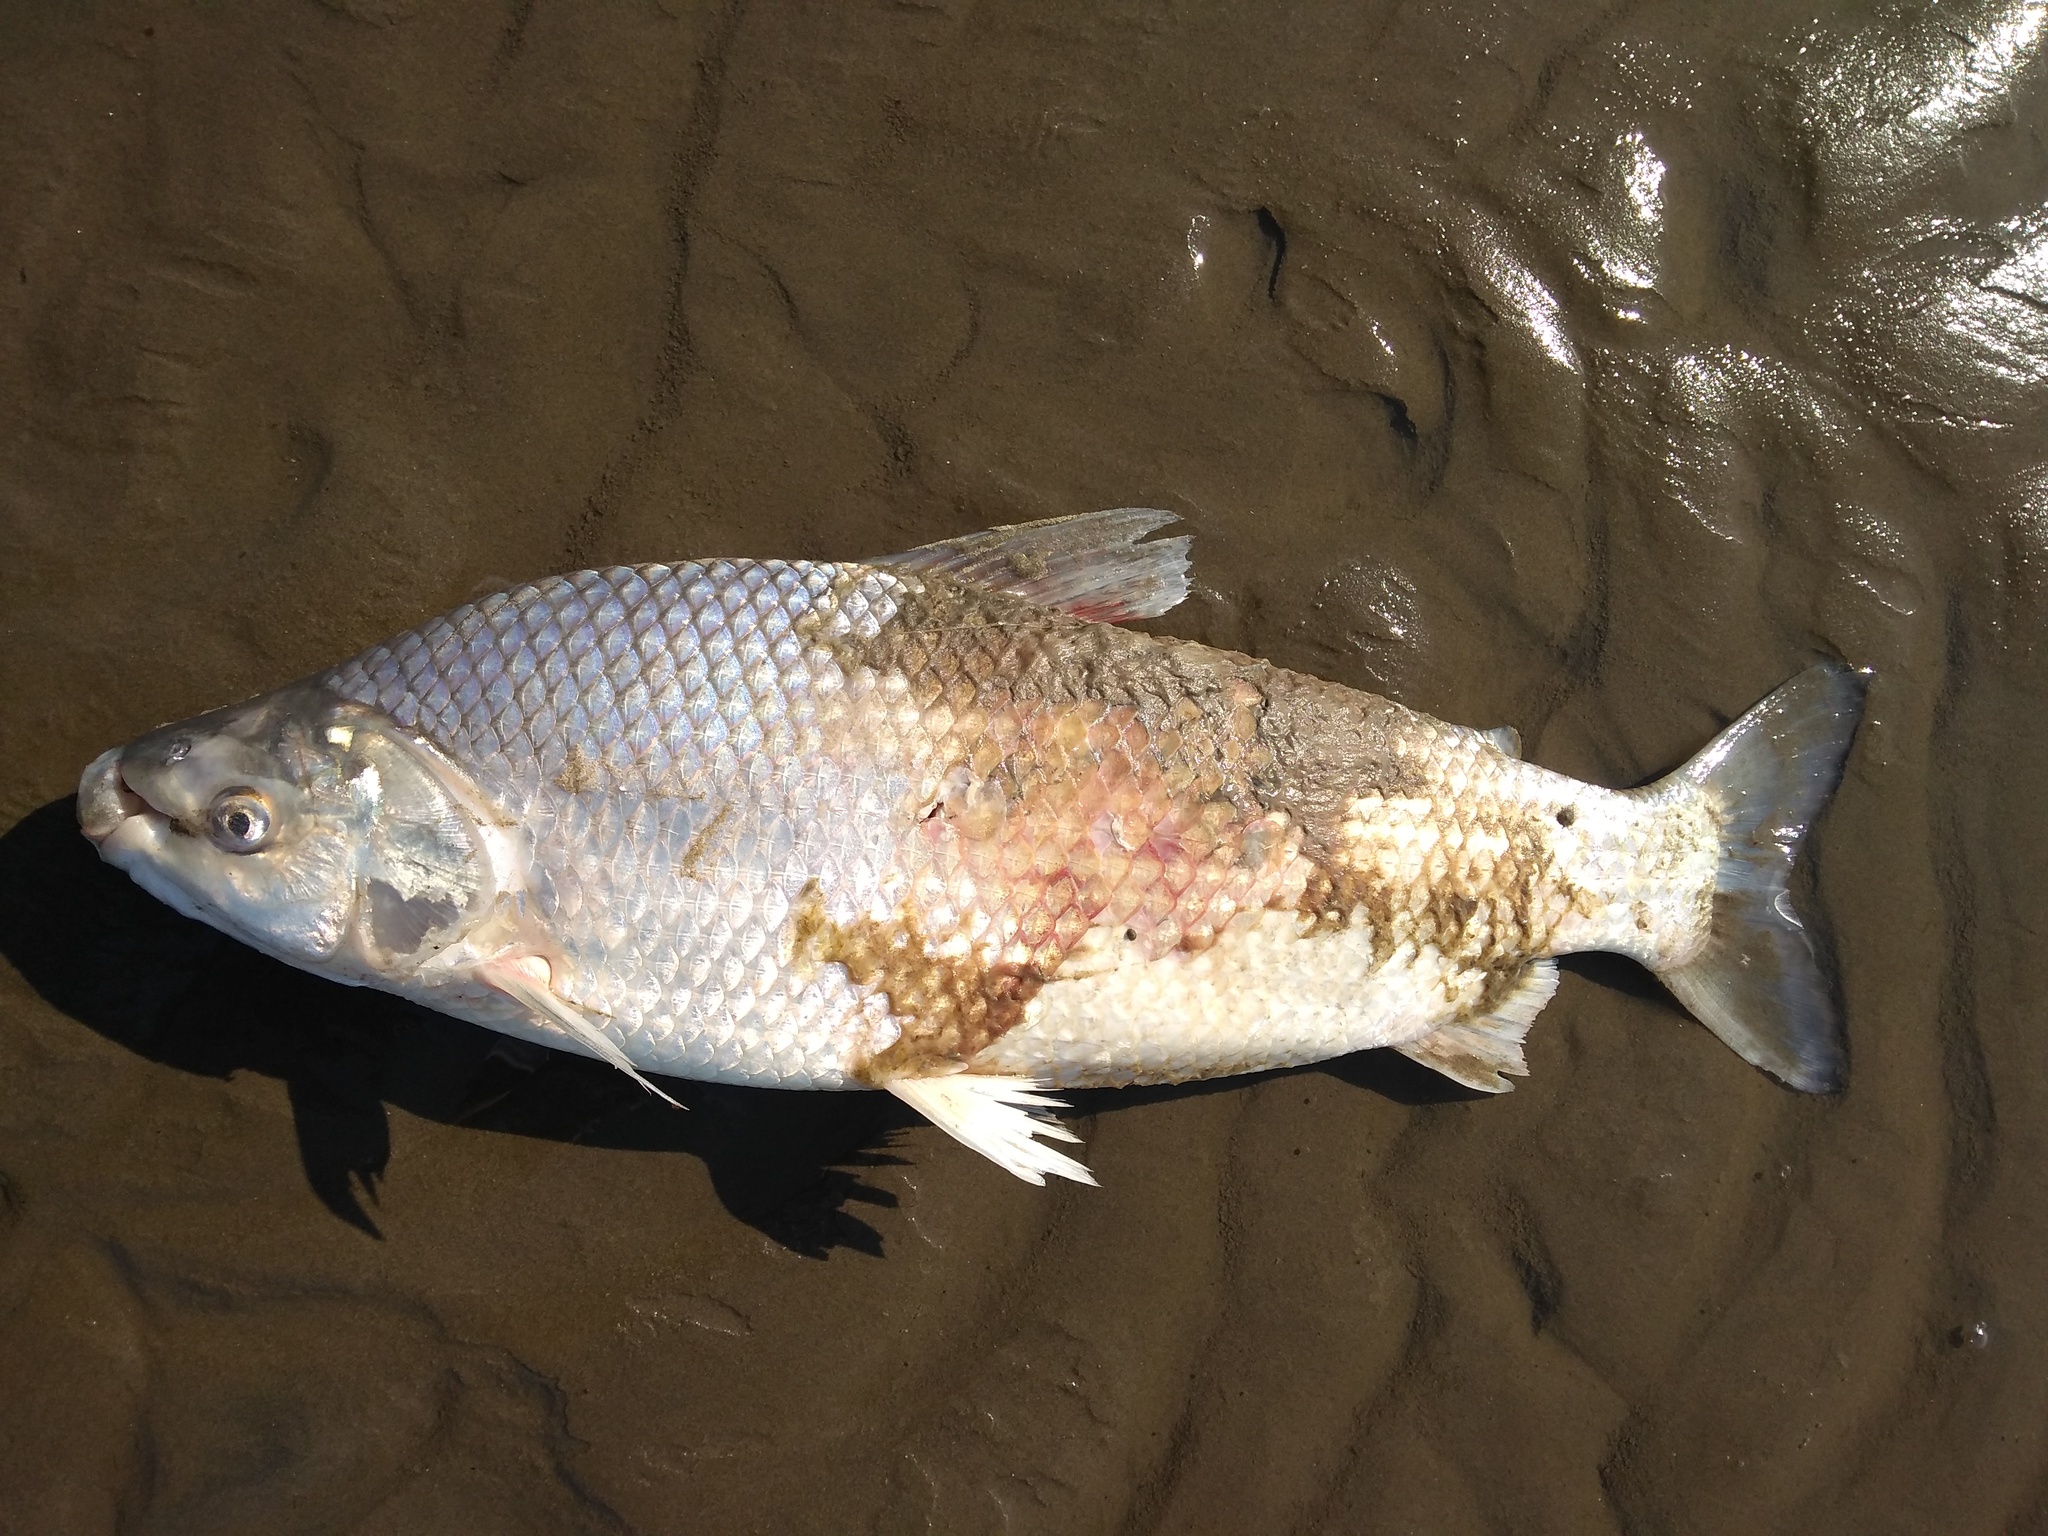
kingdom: Animalia
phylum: Chordata
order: Characiformes
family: Prochilodontidae
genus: Prochilodus
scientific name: Prochilodus lineatus
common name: Curimbata
